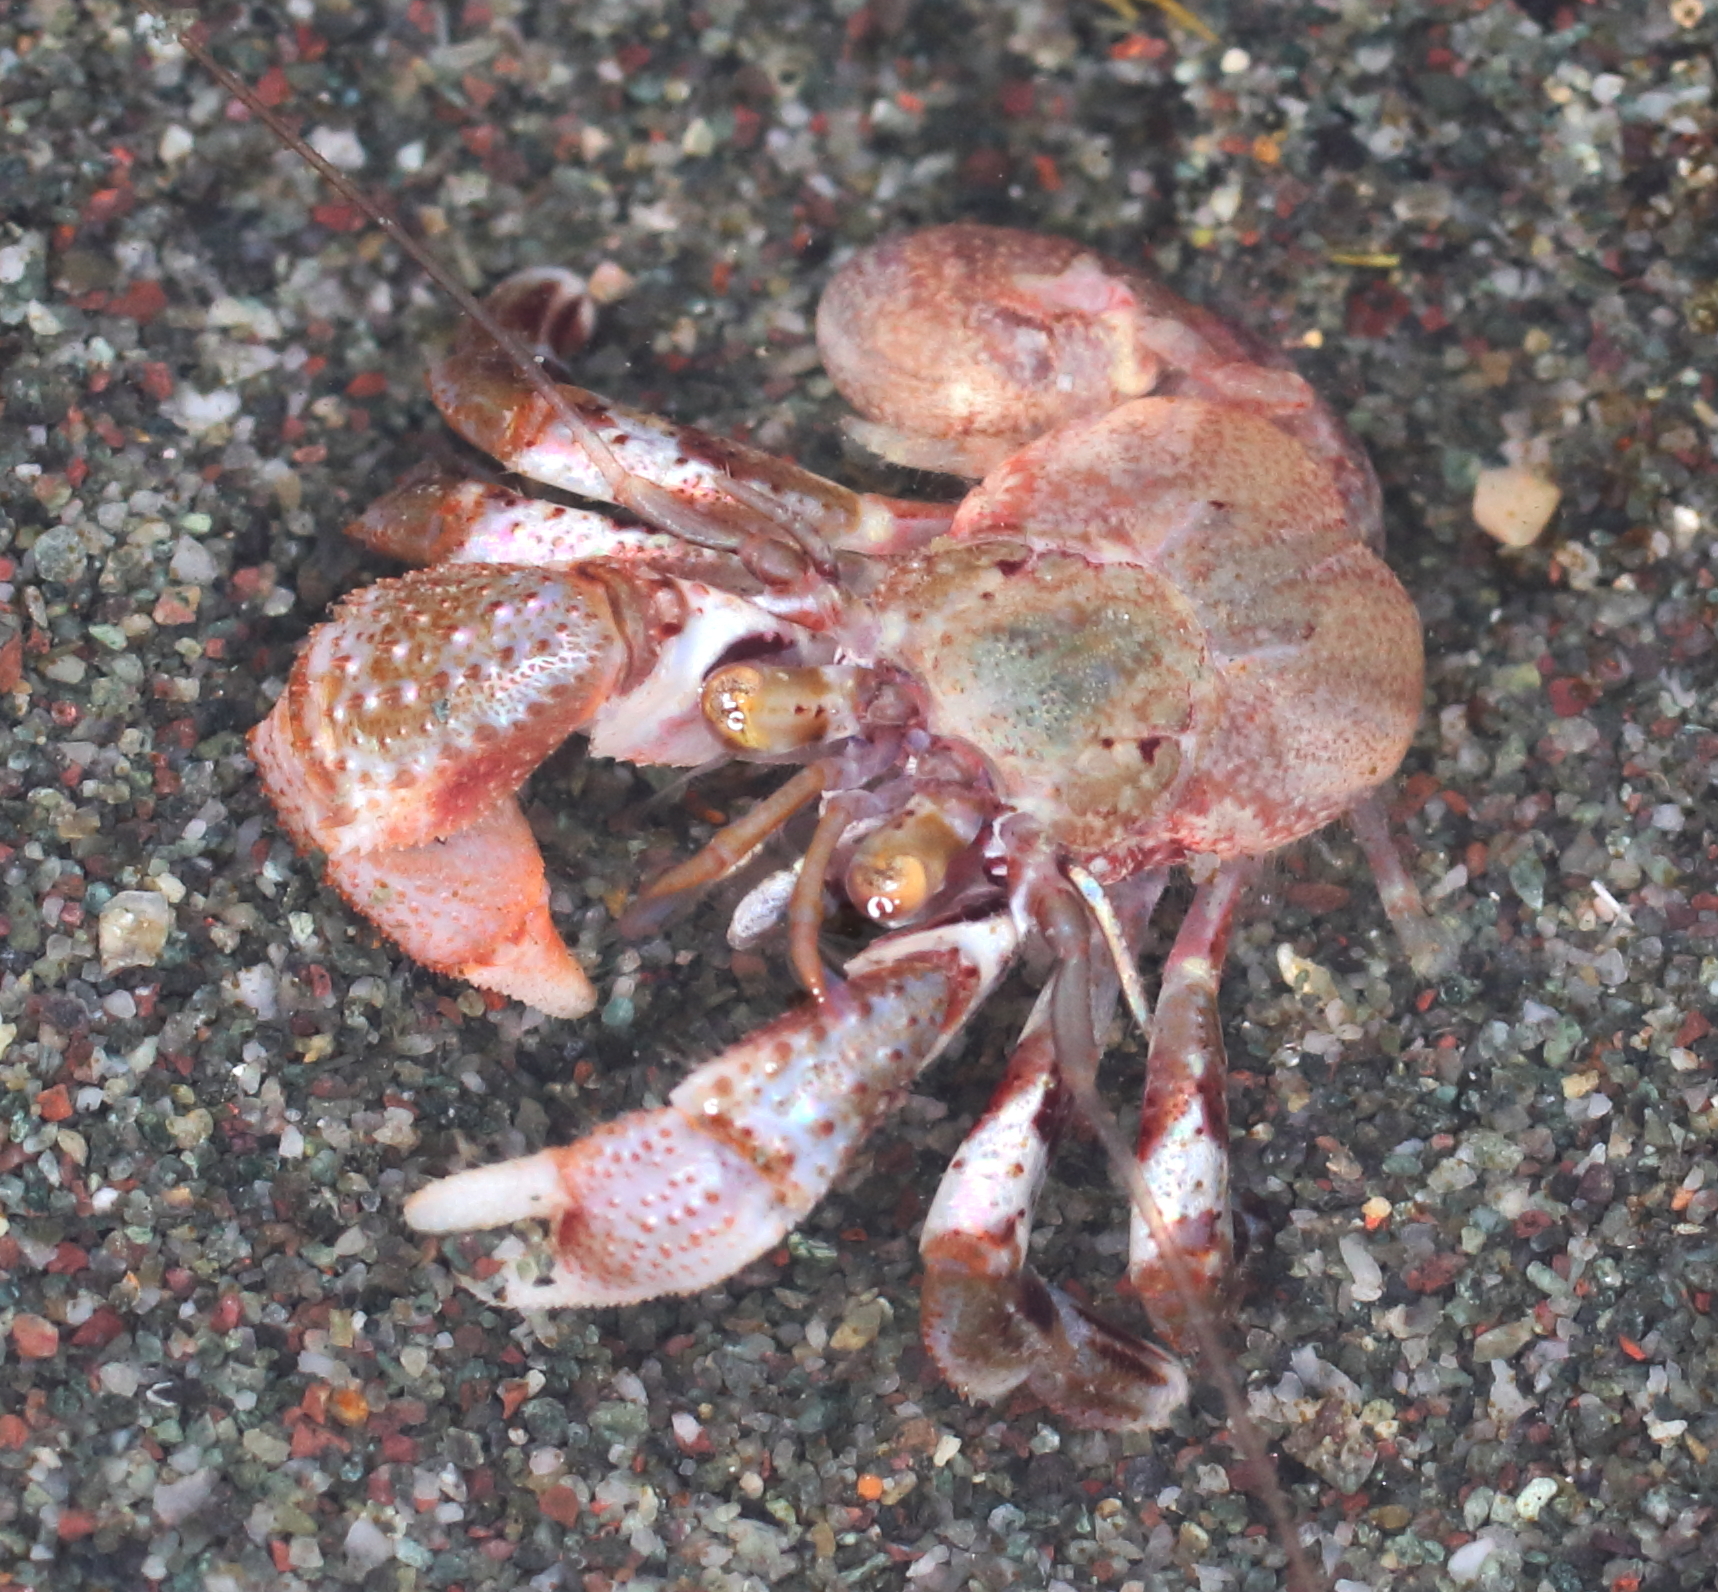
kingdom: Animalia
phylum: Arthropoda
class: Malacostraca
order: Decapoda
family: Paguridae
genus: Pagurus
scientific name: Pagurus ochotensis
